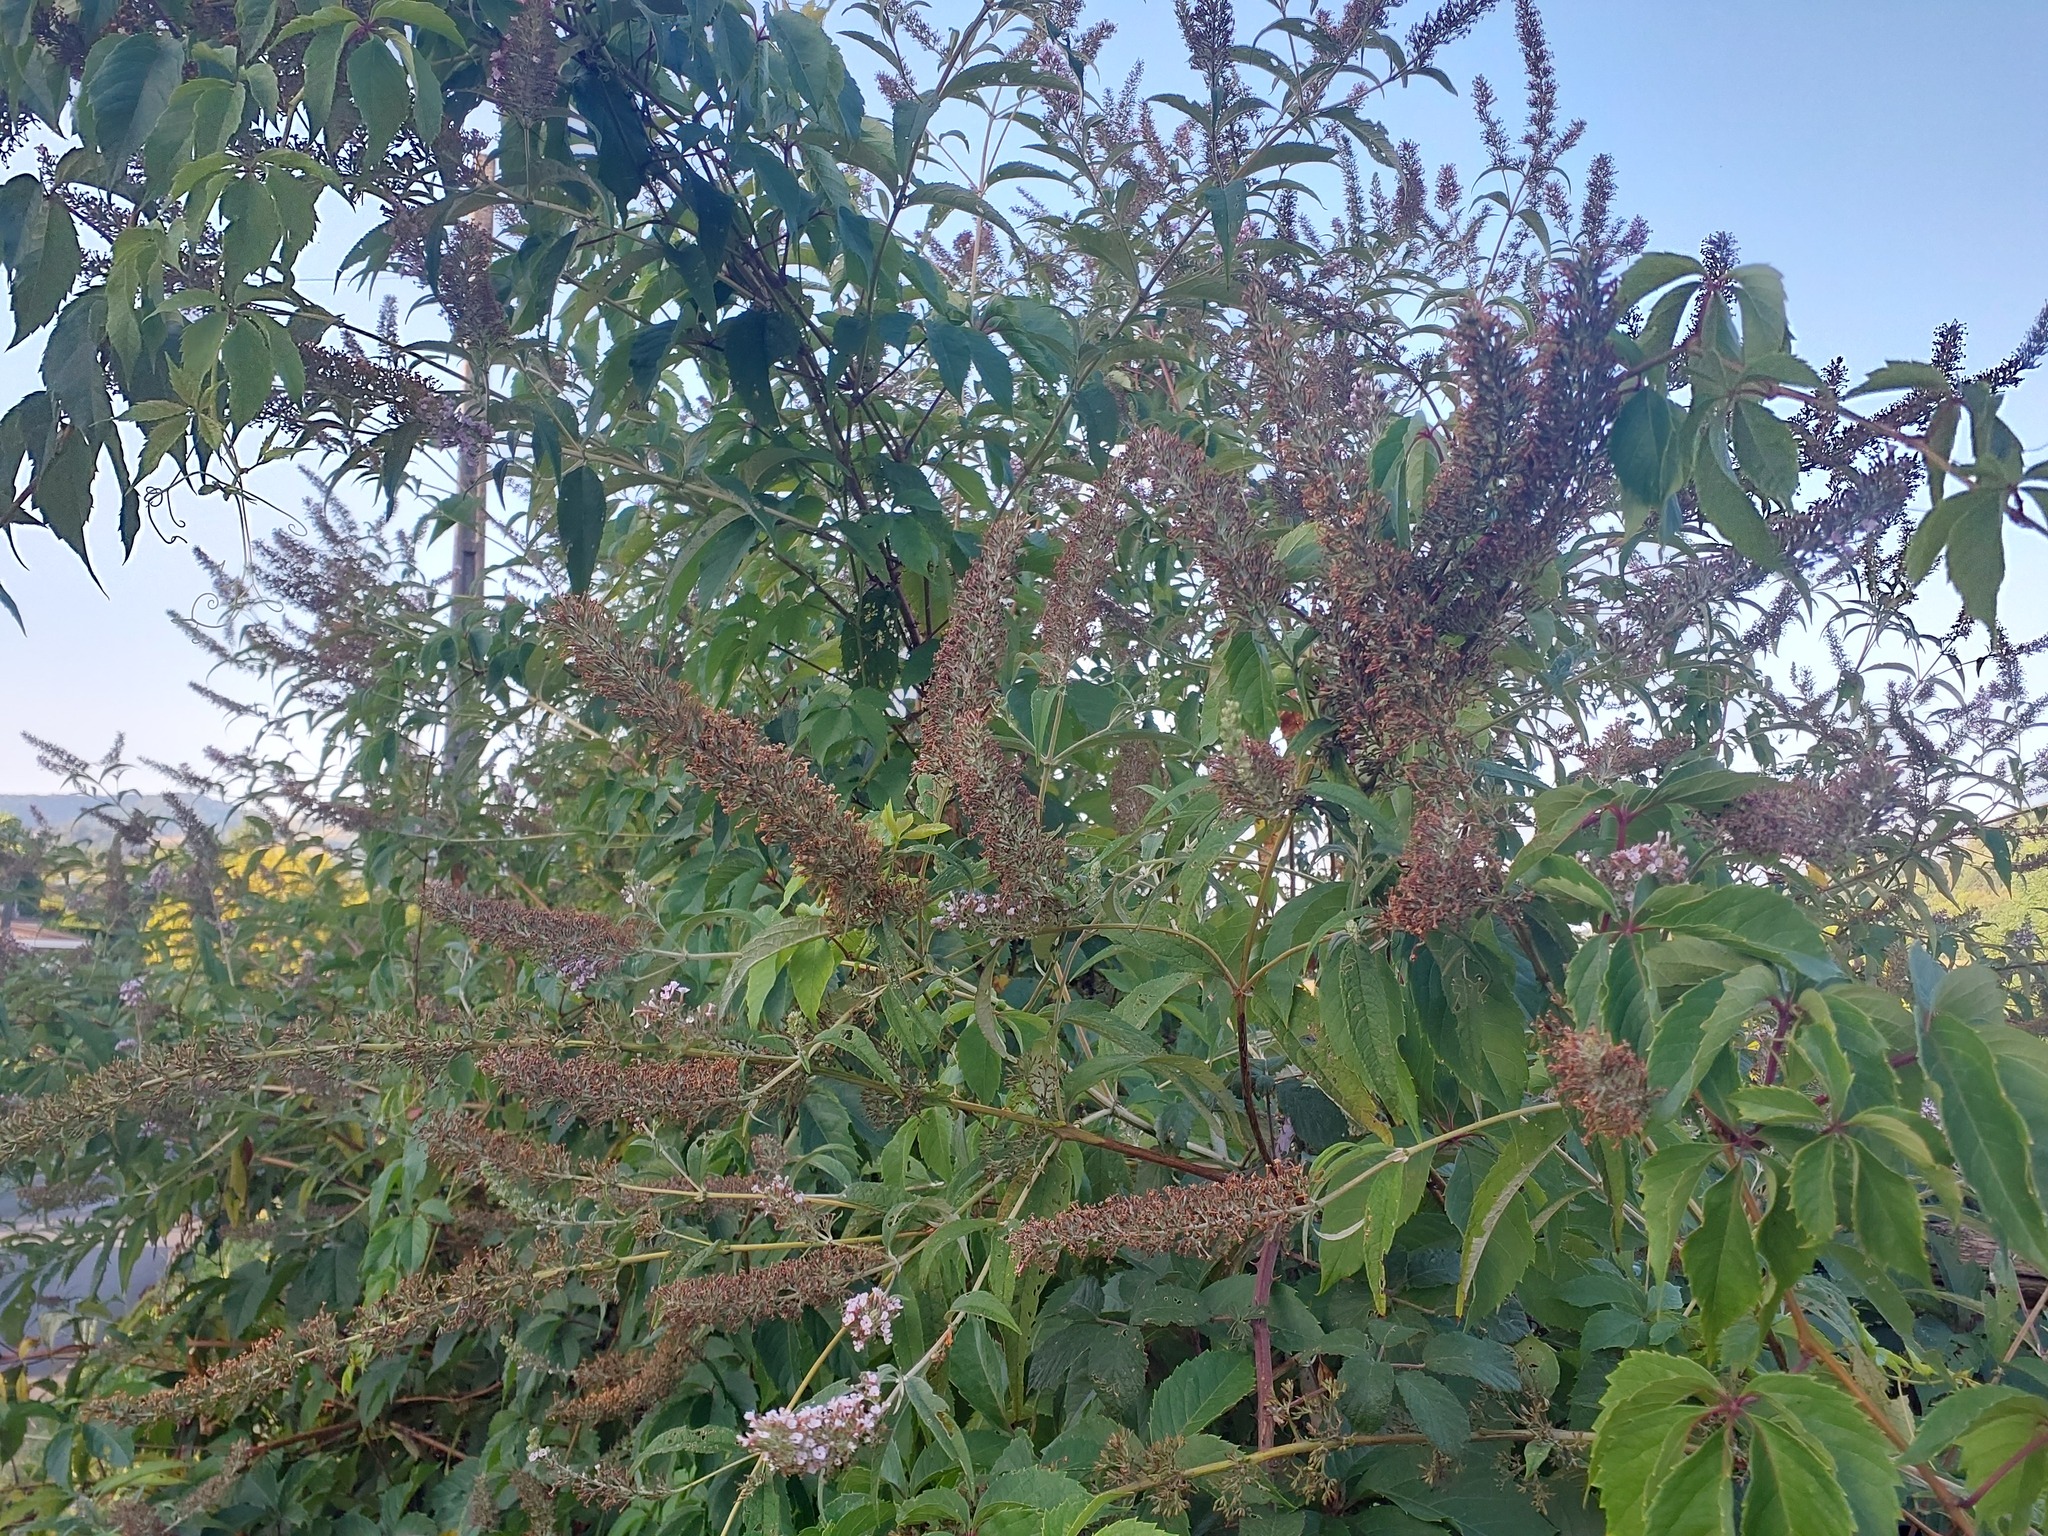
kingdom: Plantae
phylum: Tracheophyta
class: Magnoliopsida
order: Lamiales
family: Scrophulariaceae
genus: Buddleja
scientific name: Buddleja davidii
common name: Butterfly-bush
